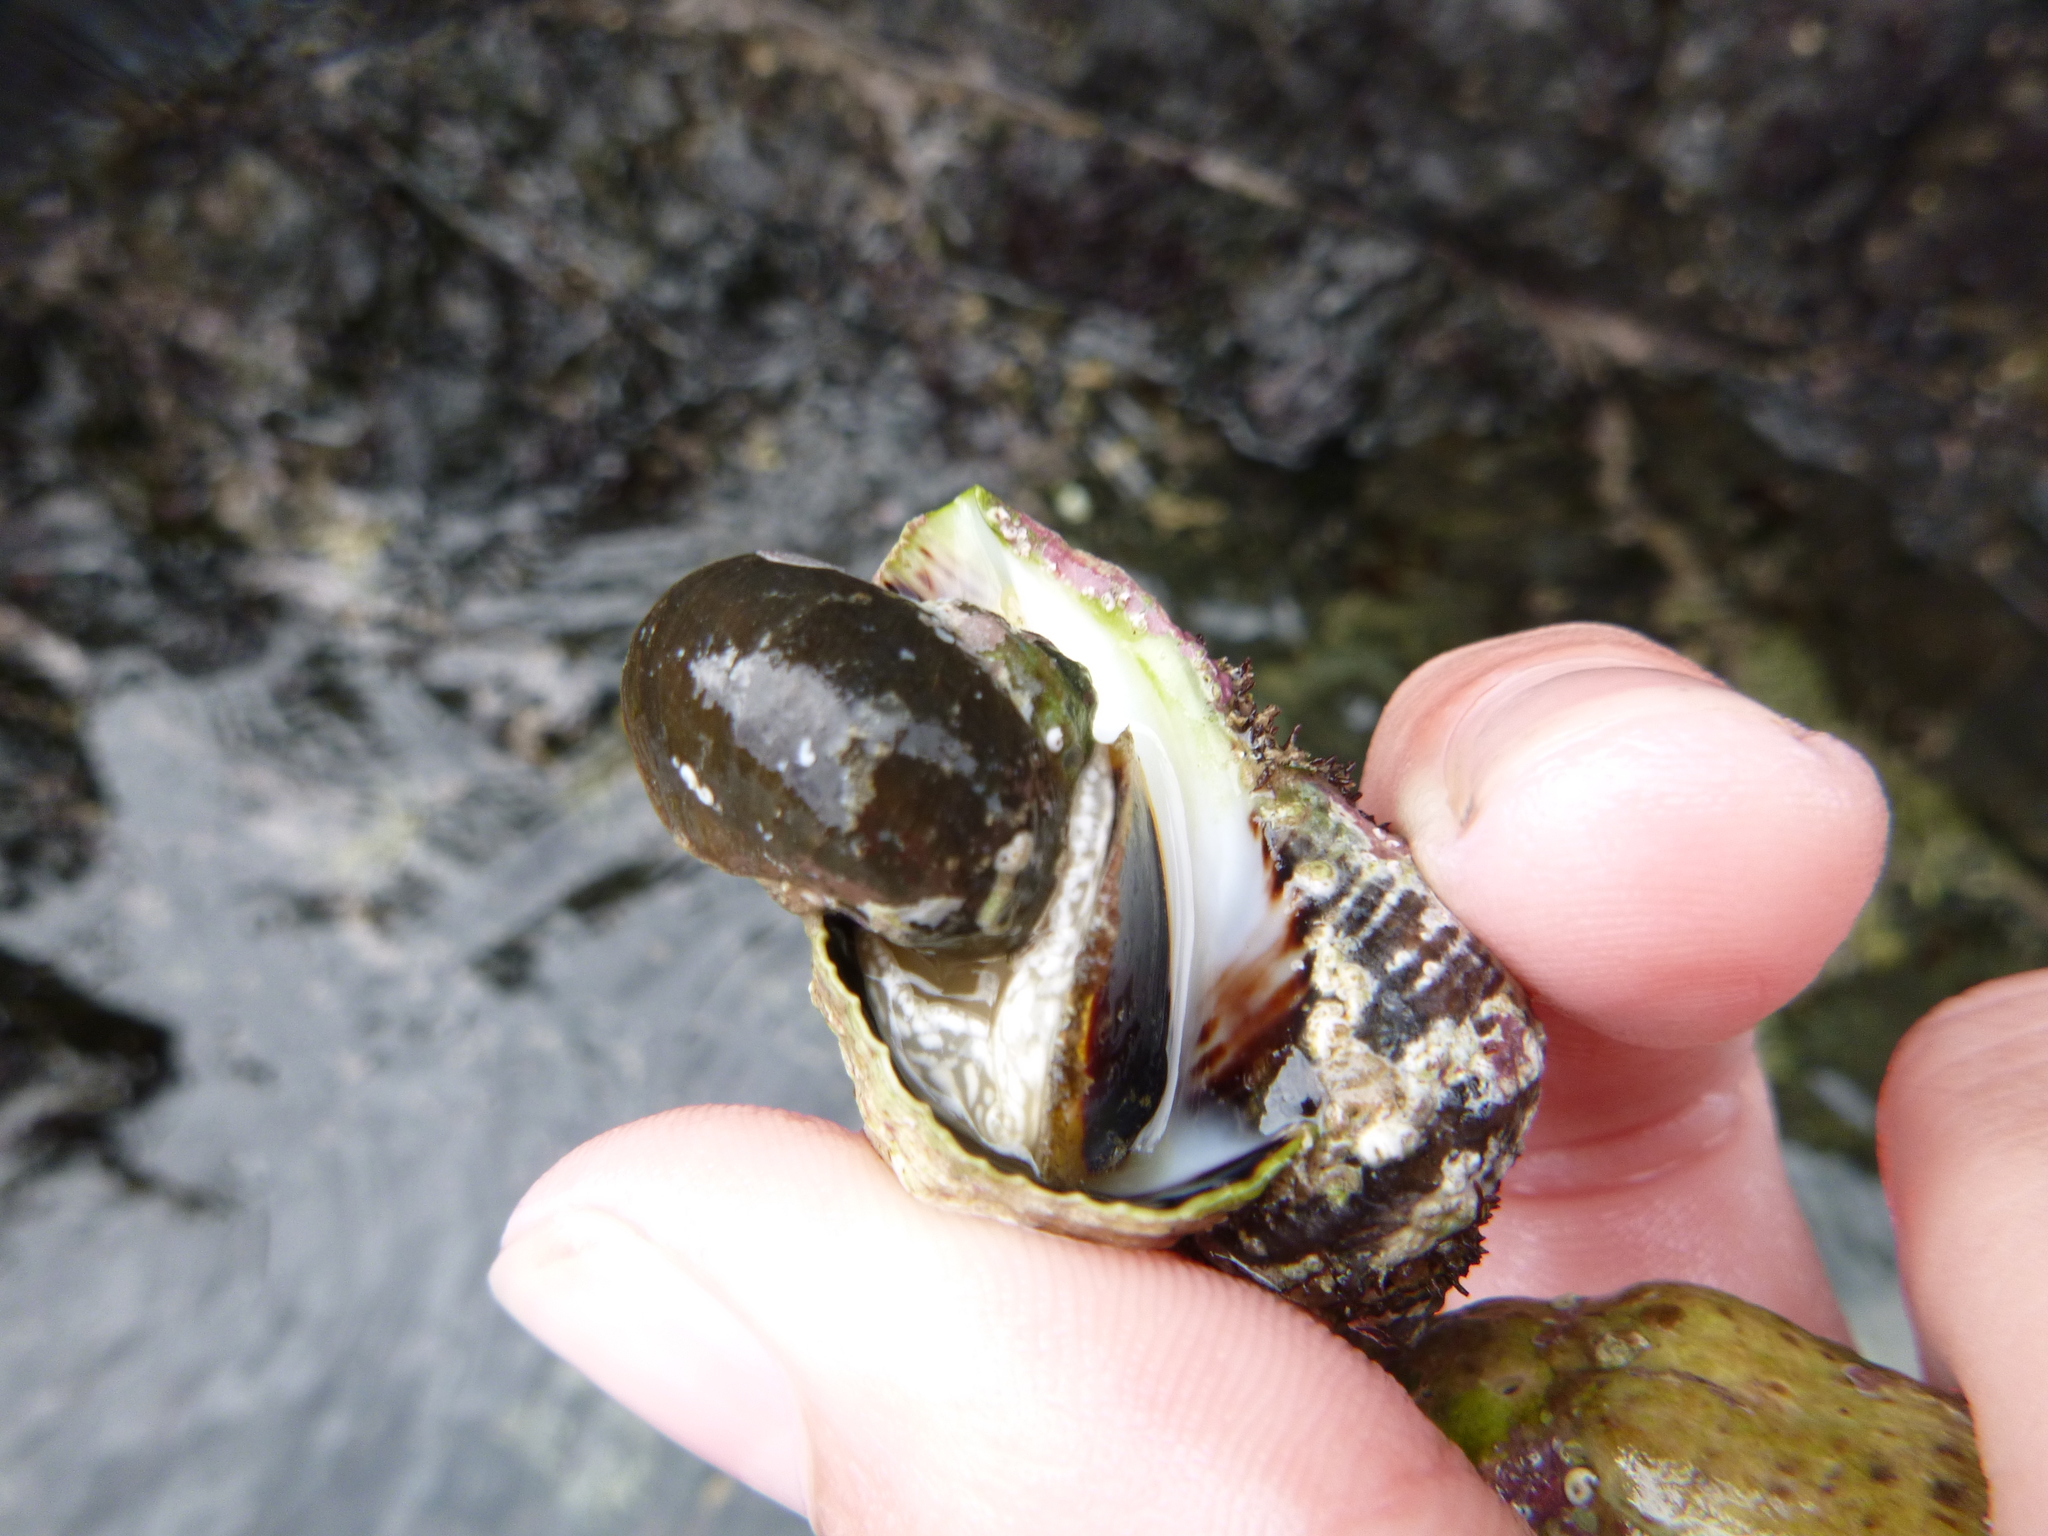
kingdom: Animalia
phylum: Mollusca
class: Gastropoda
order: Trochida
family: Turbinidae
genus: Lunella
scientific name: Lunella smaragda
